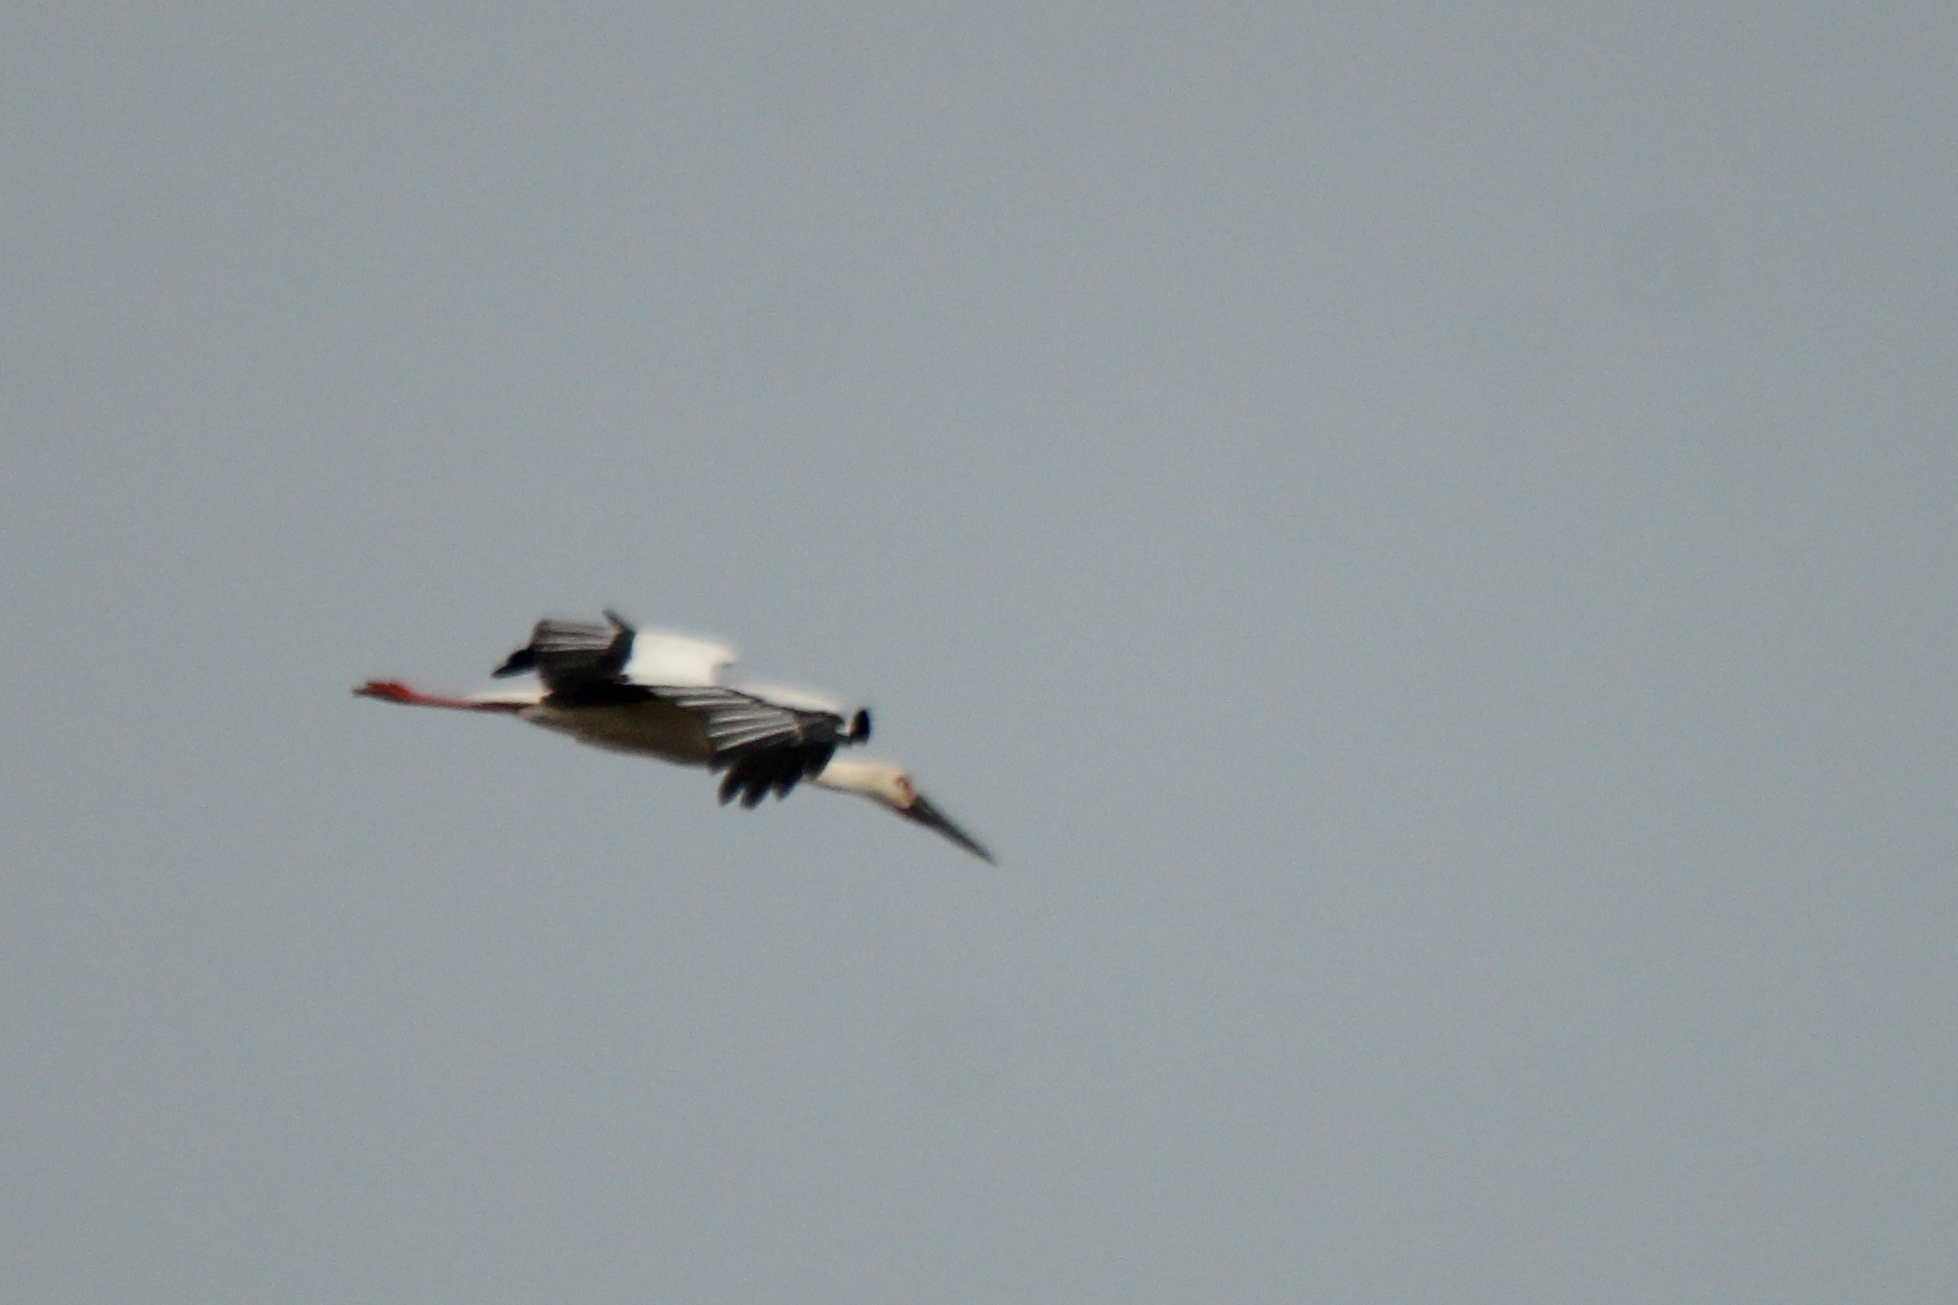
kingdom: Animalia
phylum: Chordata
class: Aves
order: Ciconiiformes
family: Ciconiidae
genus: Ciconia
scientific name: Ciconia boyciana
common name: Oriental stork
